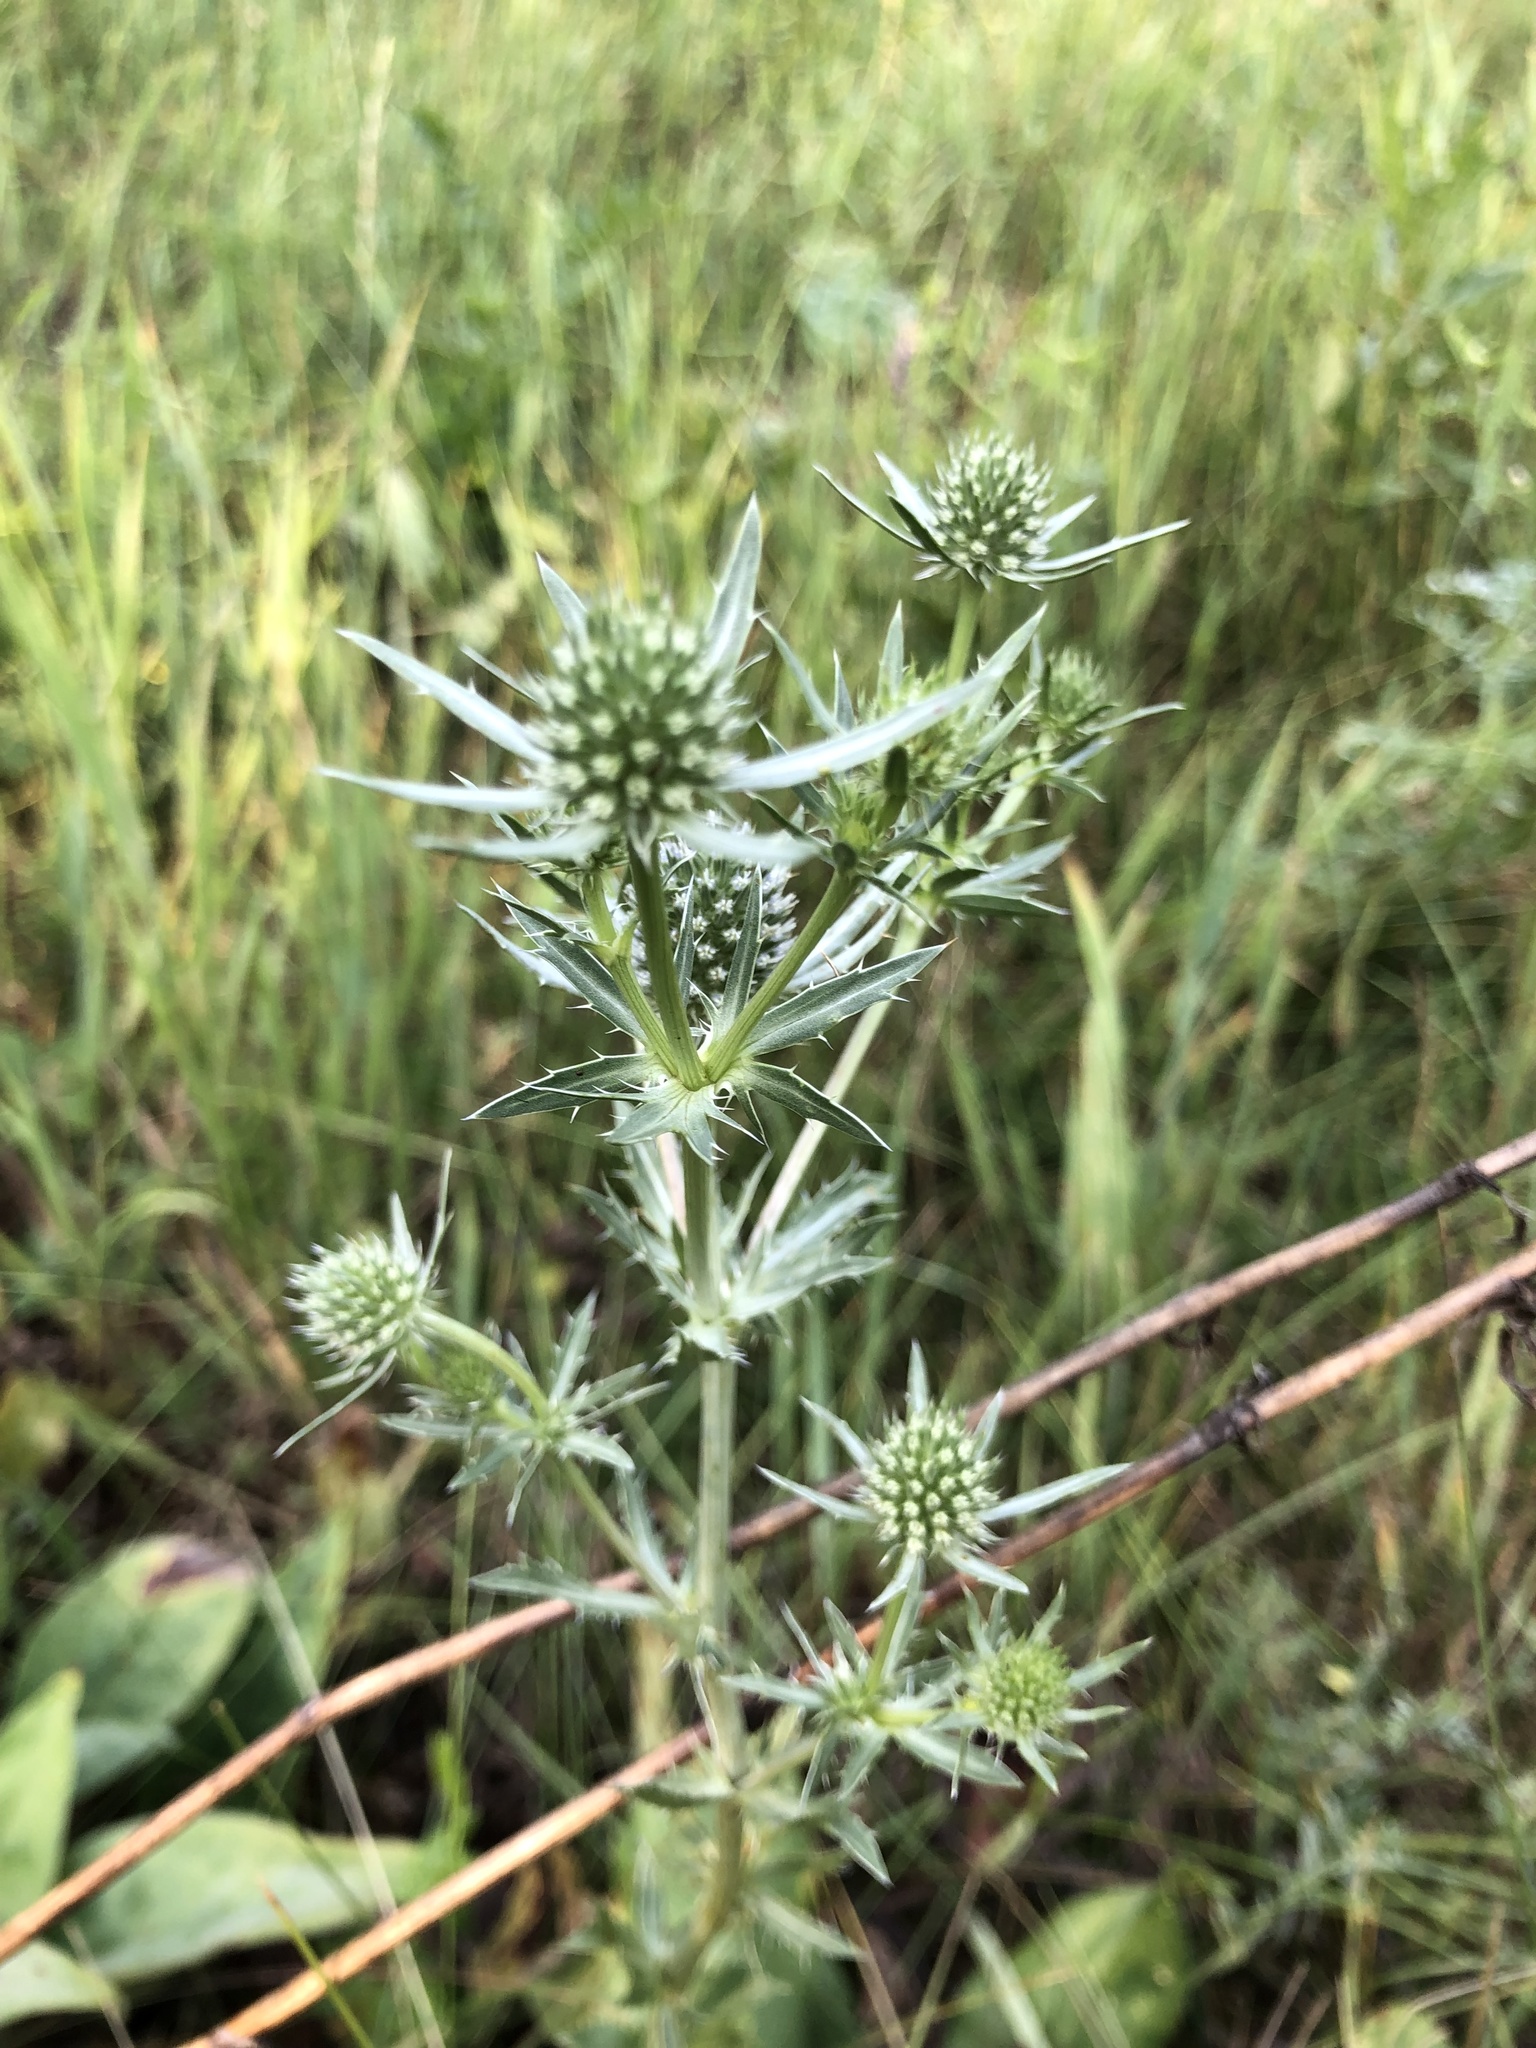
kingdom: Plantae
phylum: Tracheophyta
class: Magnoliopsida
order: Apiales
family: Apiaceae
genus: Eryngium
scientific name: Eryngium planum
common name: Blue eryngo
